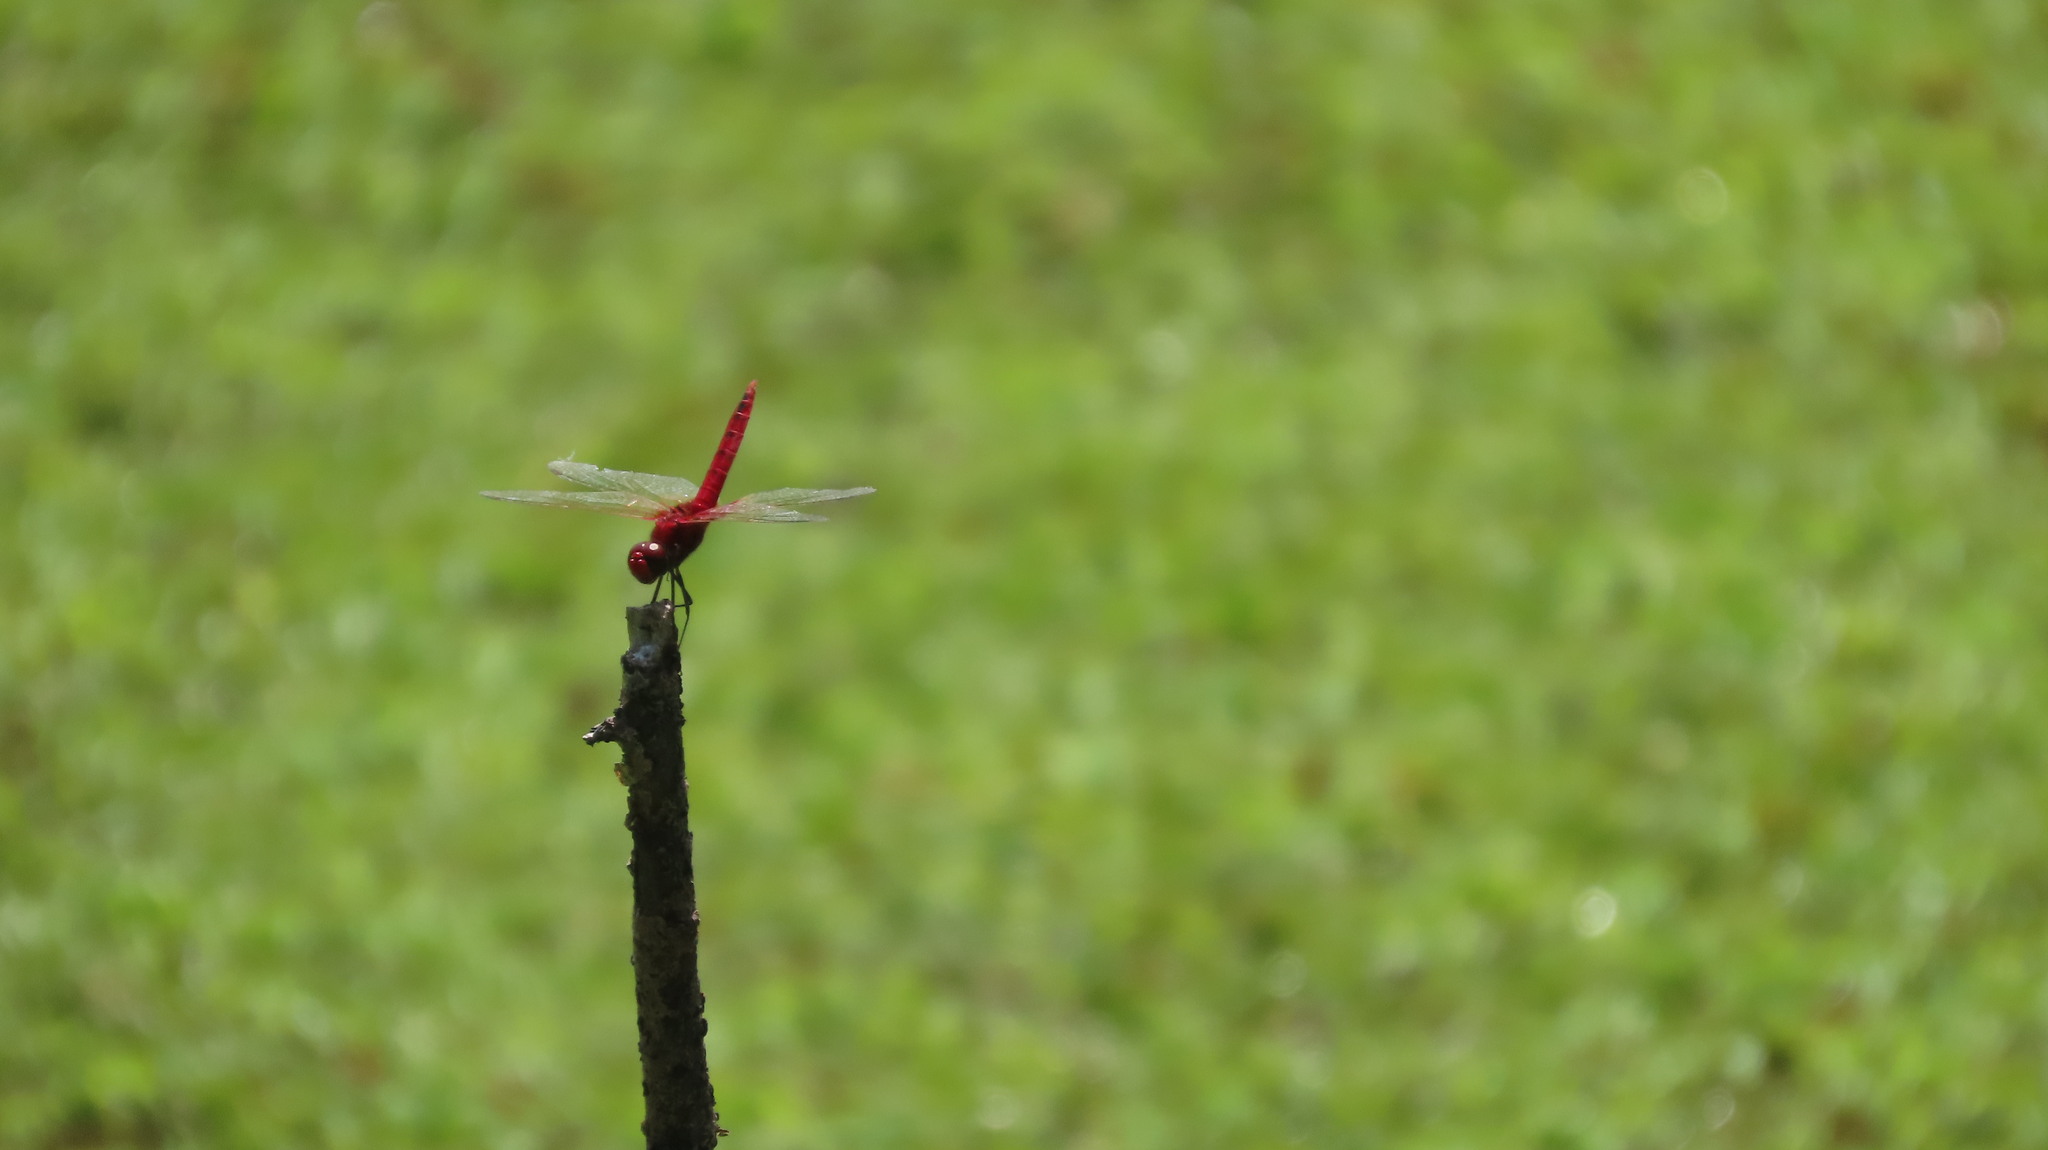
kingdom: Animalia
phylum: Arthropoda
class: Insecta
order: Odonata
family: Libellulidae
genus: Urothemis
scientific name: Urothemis signata
